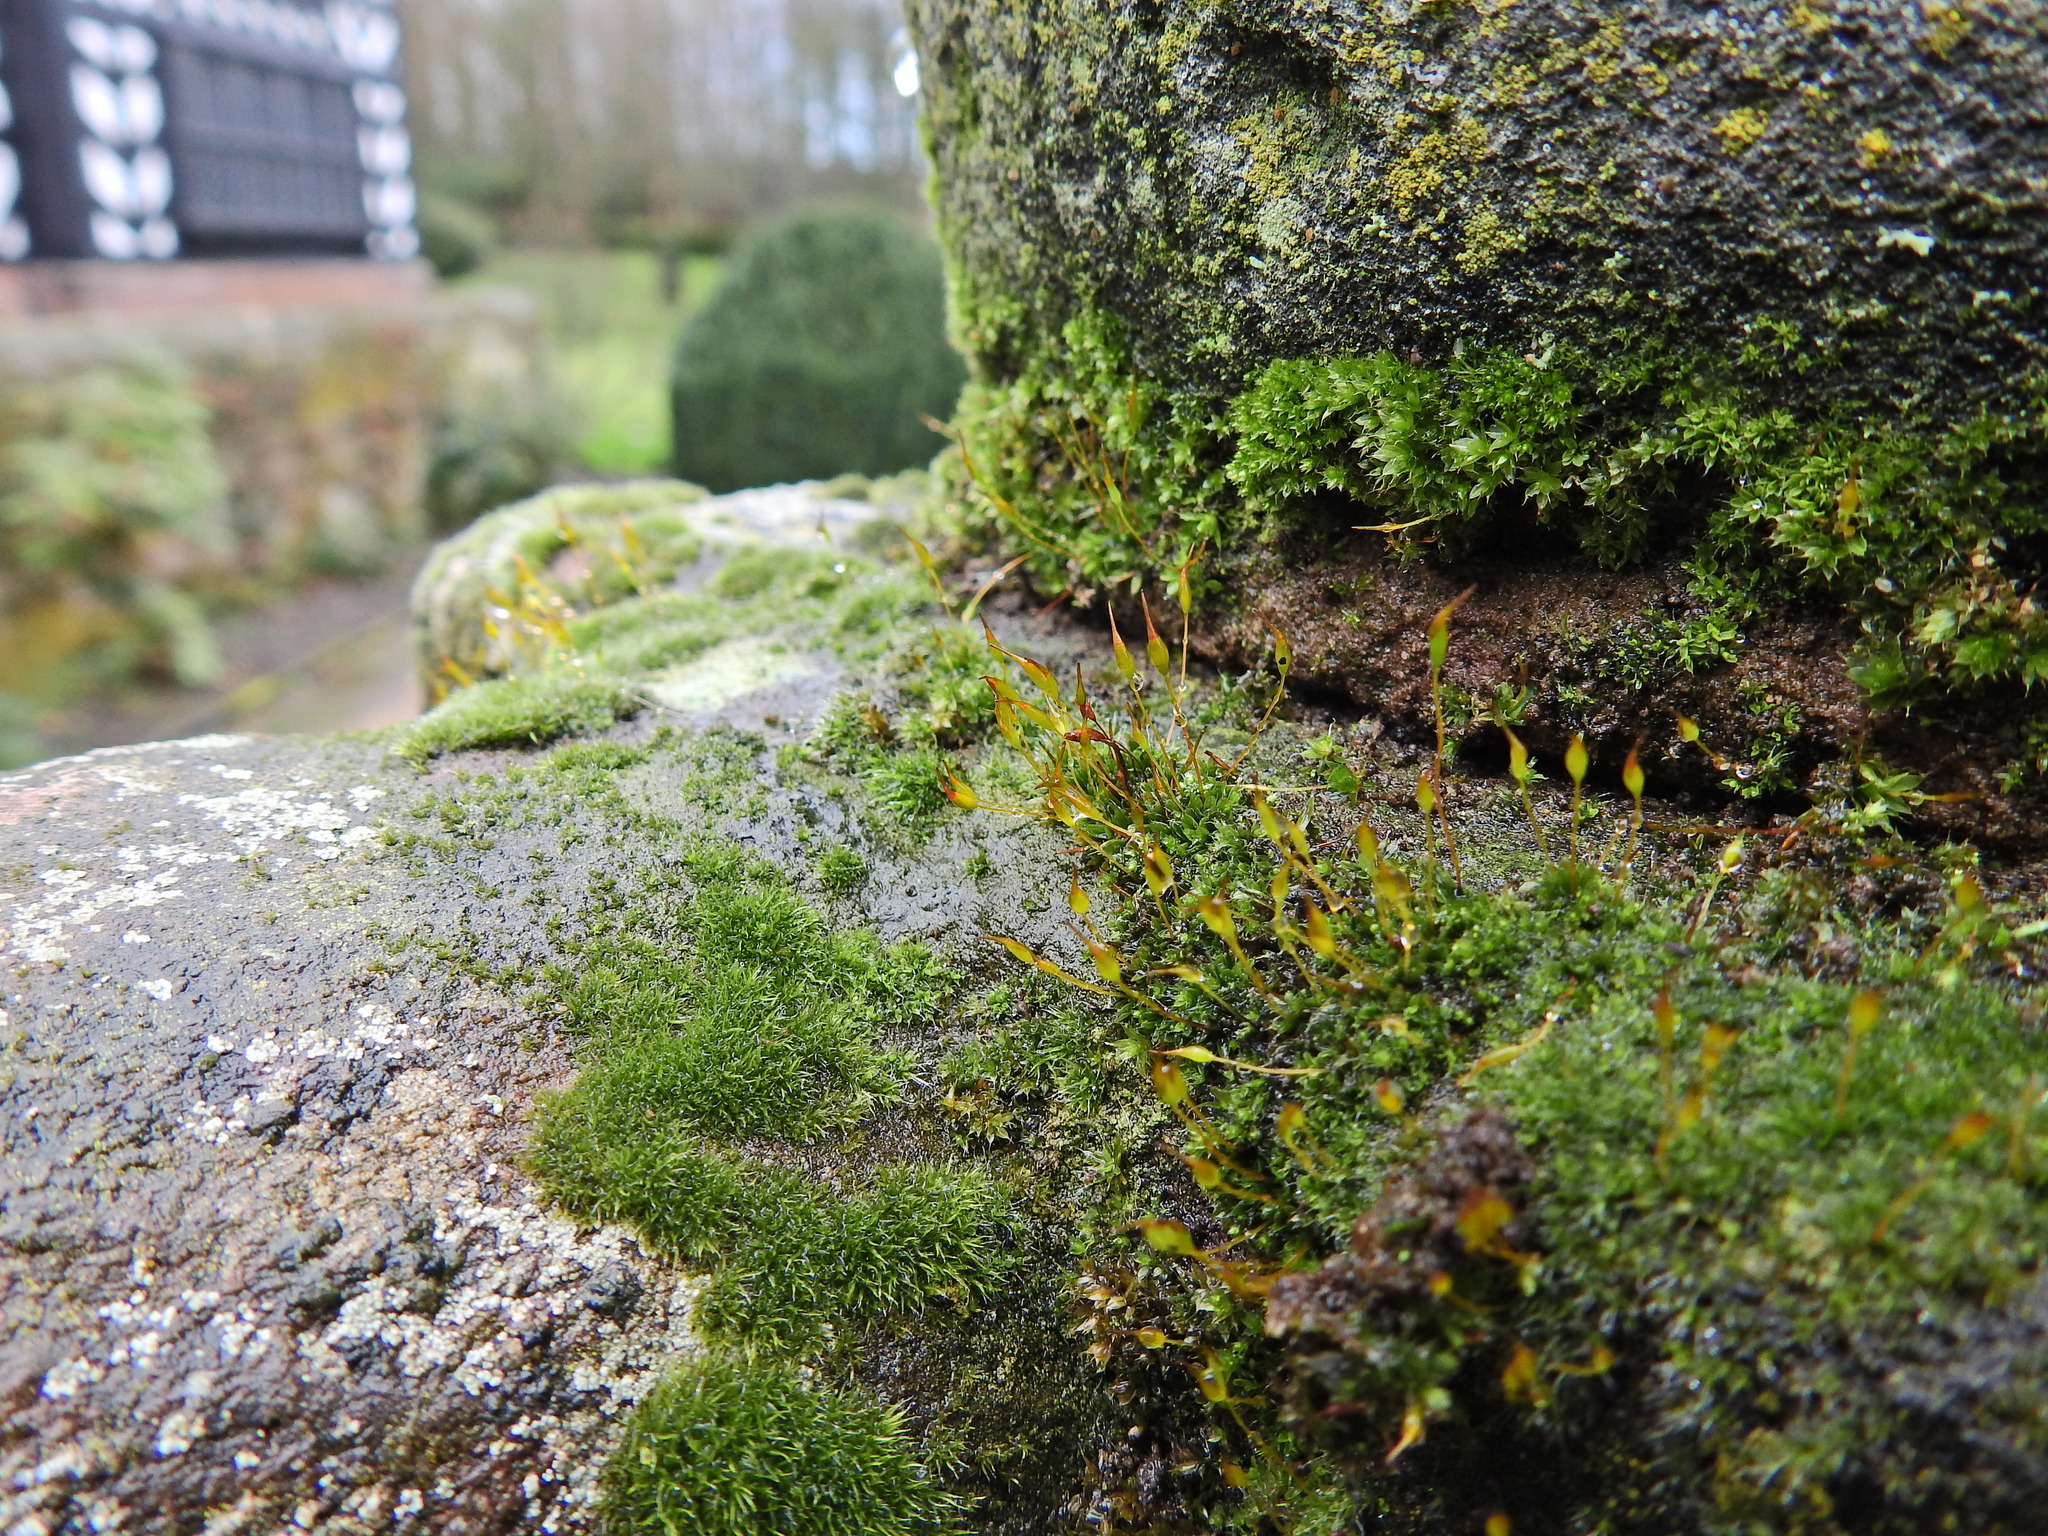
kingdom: Plantae
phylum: Bryophyta
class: Bryopsida
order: Pottiales
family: Pottiaceae
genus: Tortula
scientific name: Tortula muralis
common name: Wall screw-moss
